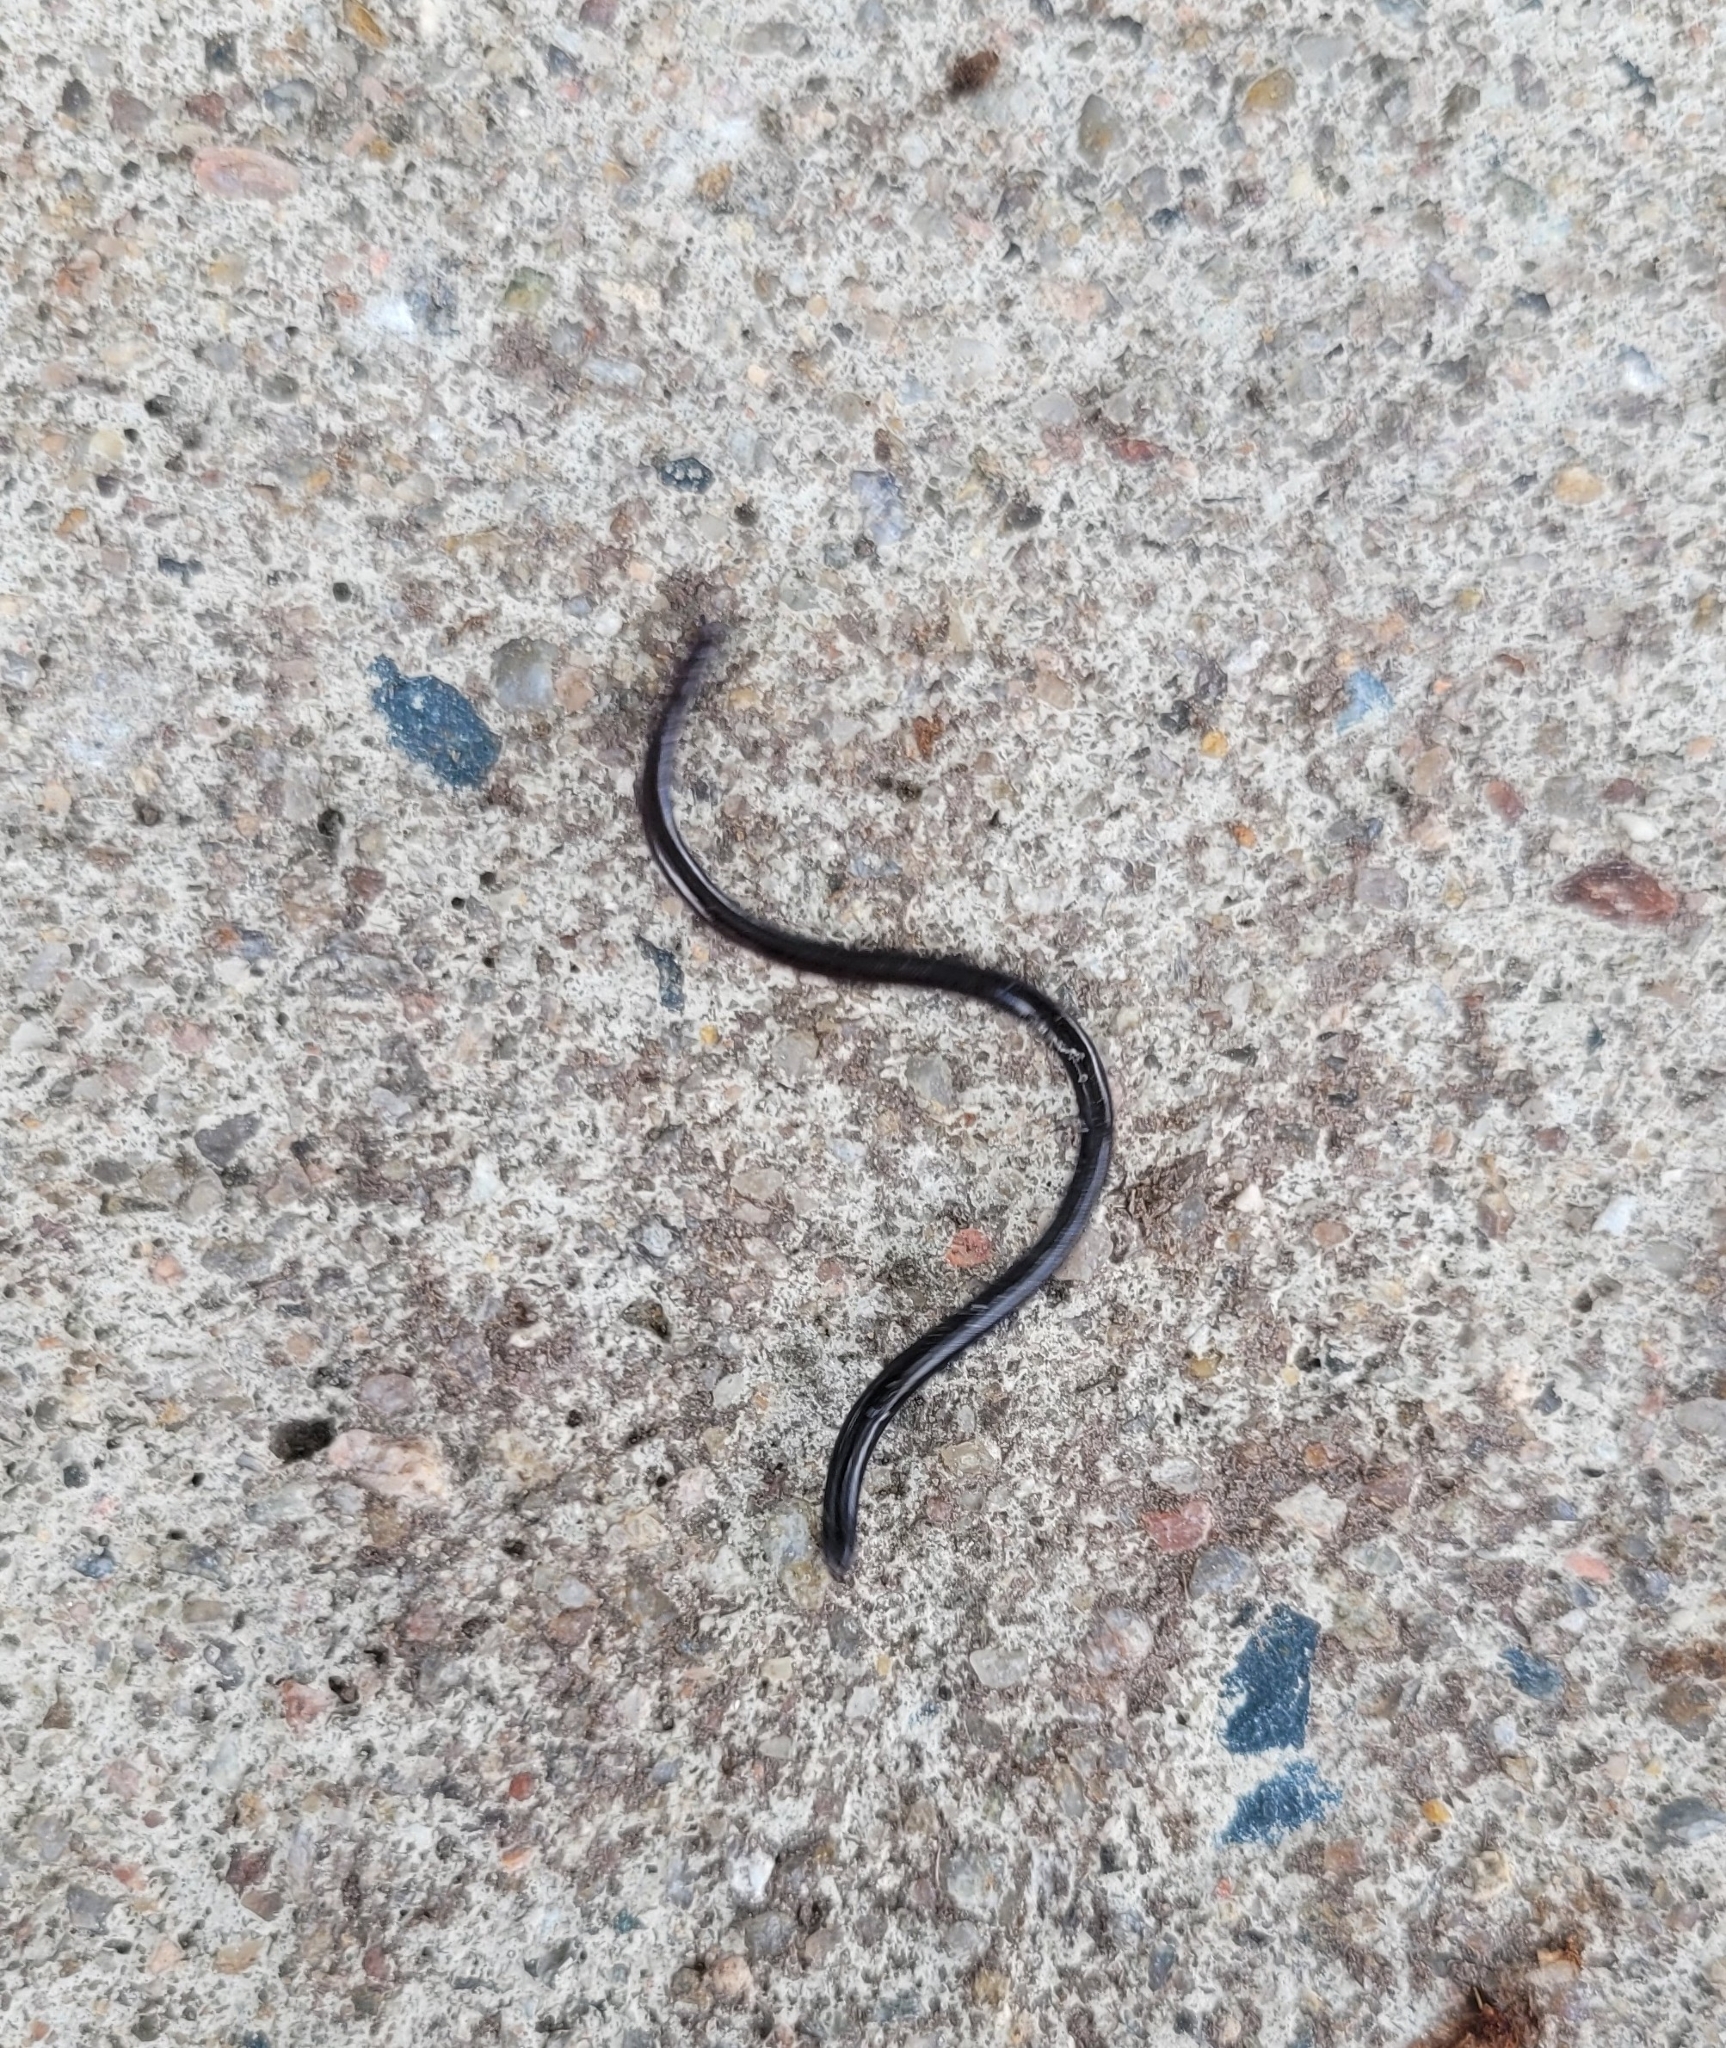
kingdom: Animalia
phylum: Chordata
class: Squamata
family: Typhlopidae
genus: Indotyphlops
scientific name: Indotyphlops braminus
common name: Brahminy blindsnake
